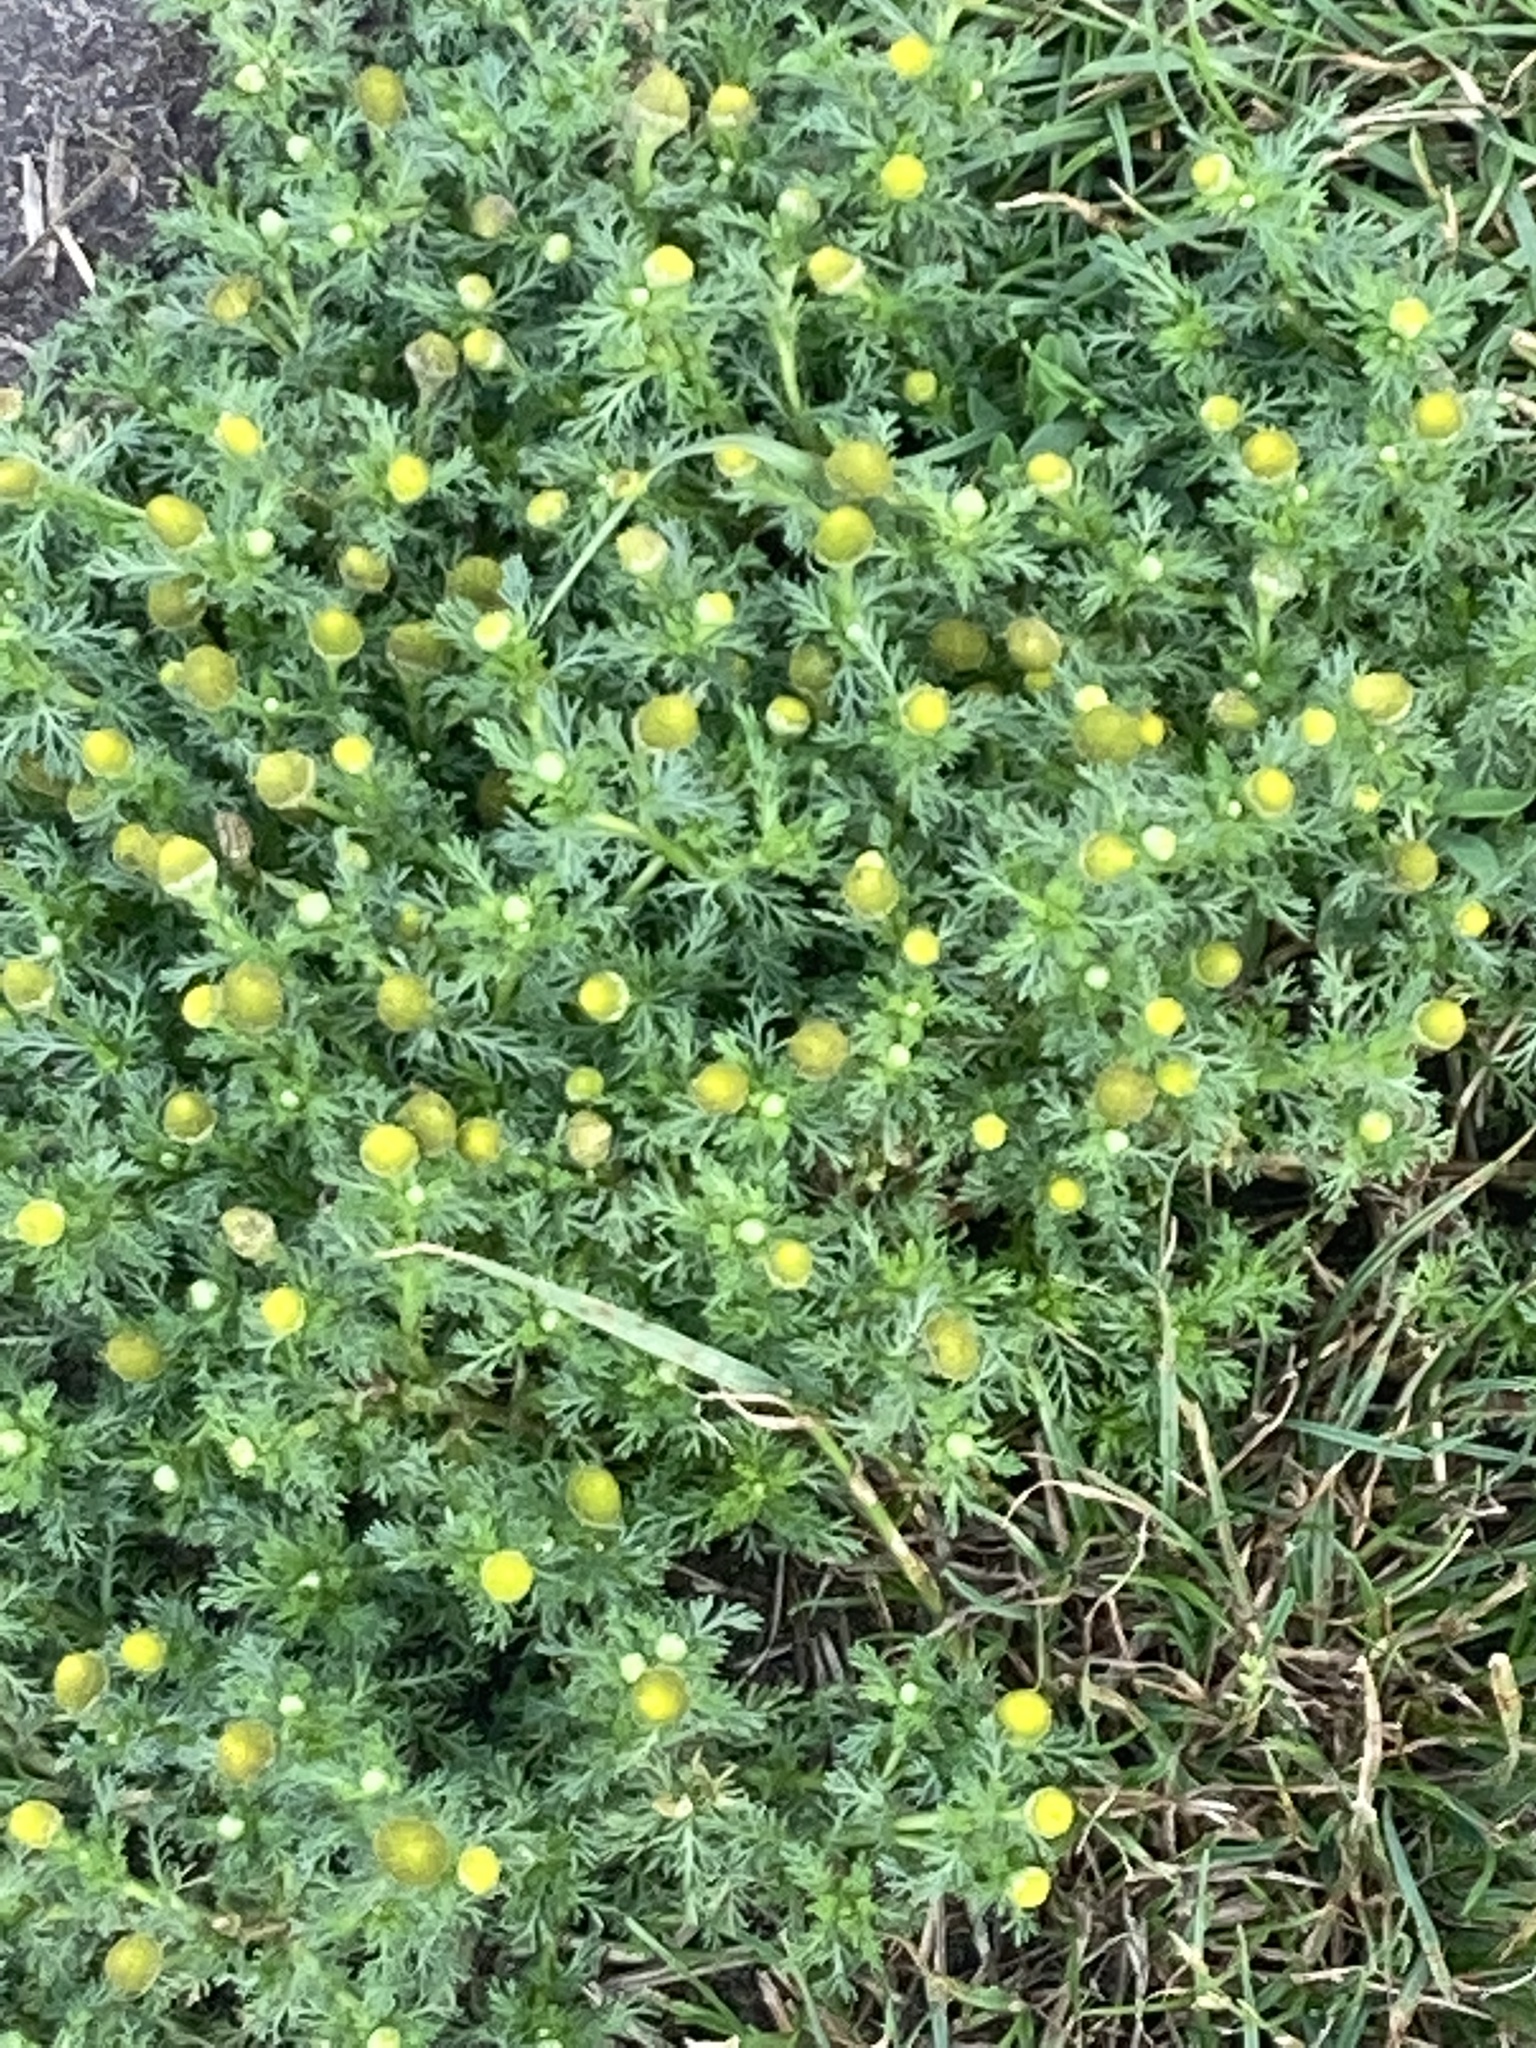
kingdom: Plantae
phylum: Tracheophyta
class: Magnoliopsida
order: Asterales
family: Asteraceae
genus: Matricaria
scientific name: Matricaria discoidea
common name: Disc mayweed
